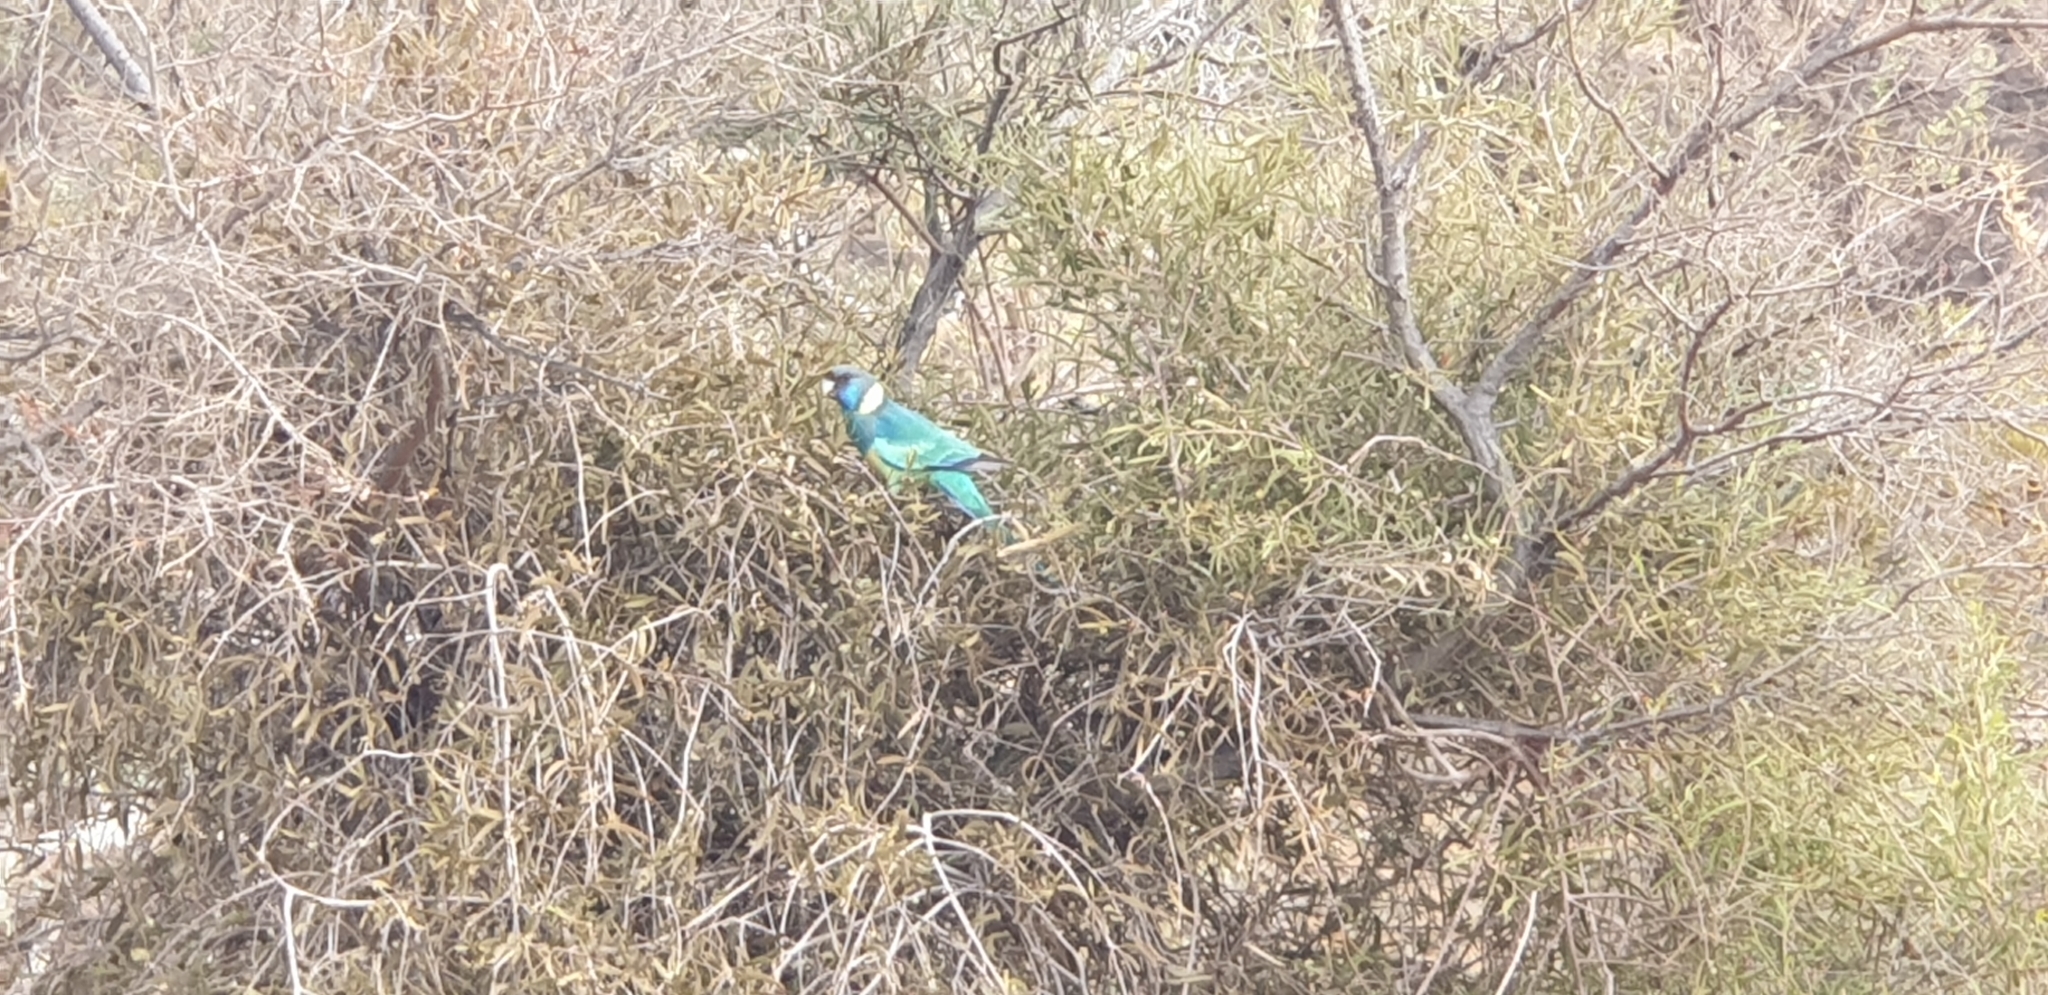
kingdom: Animalia
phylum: Chordata
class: Aves
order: Psittaciformes
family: Psittacidae
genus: Barnardius
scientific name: Barnardius zonarius
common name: Australian ringneck
